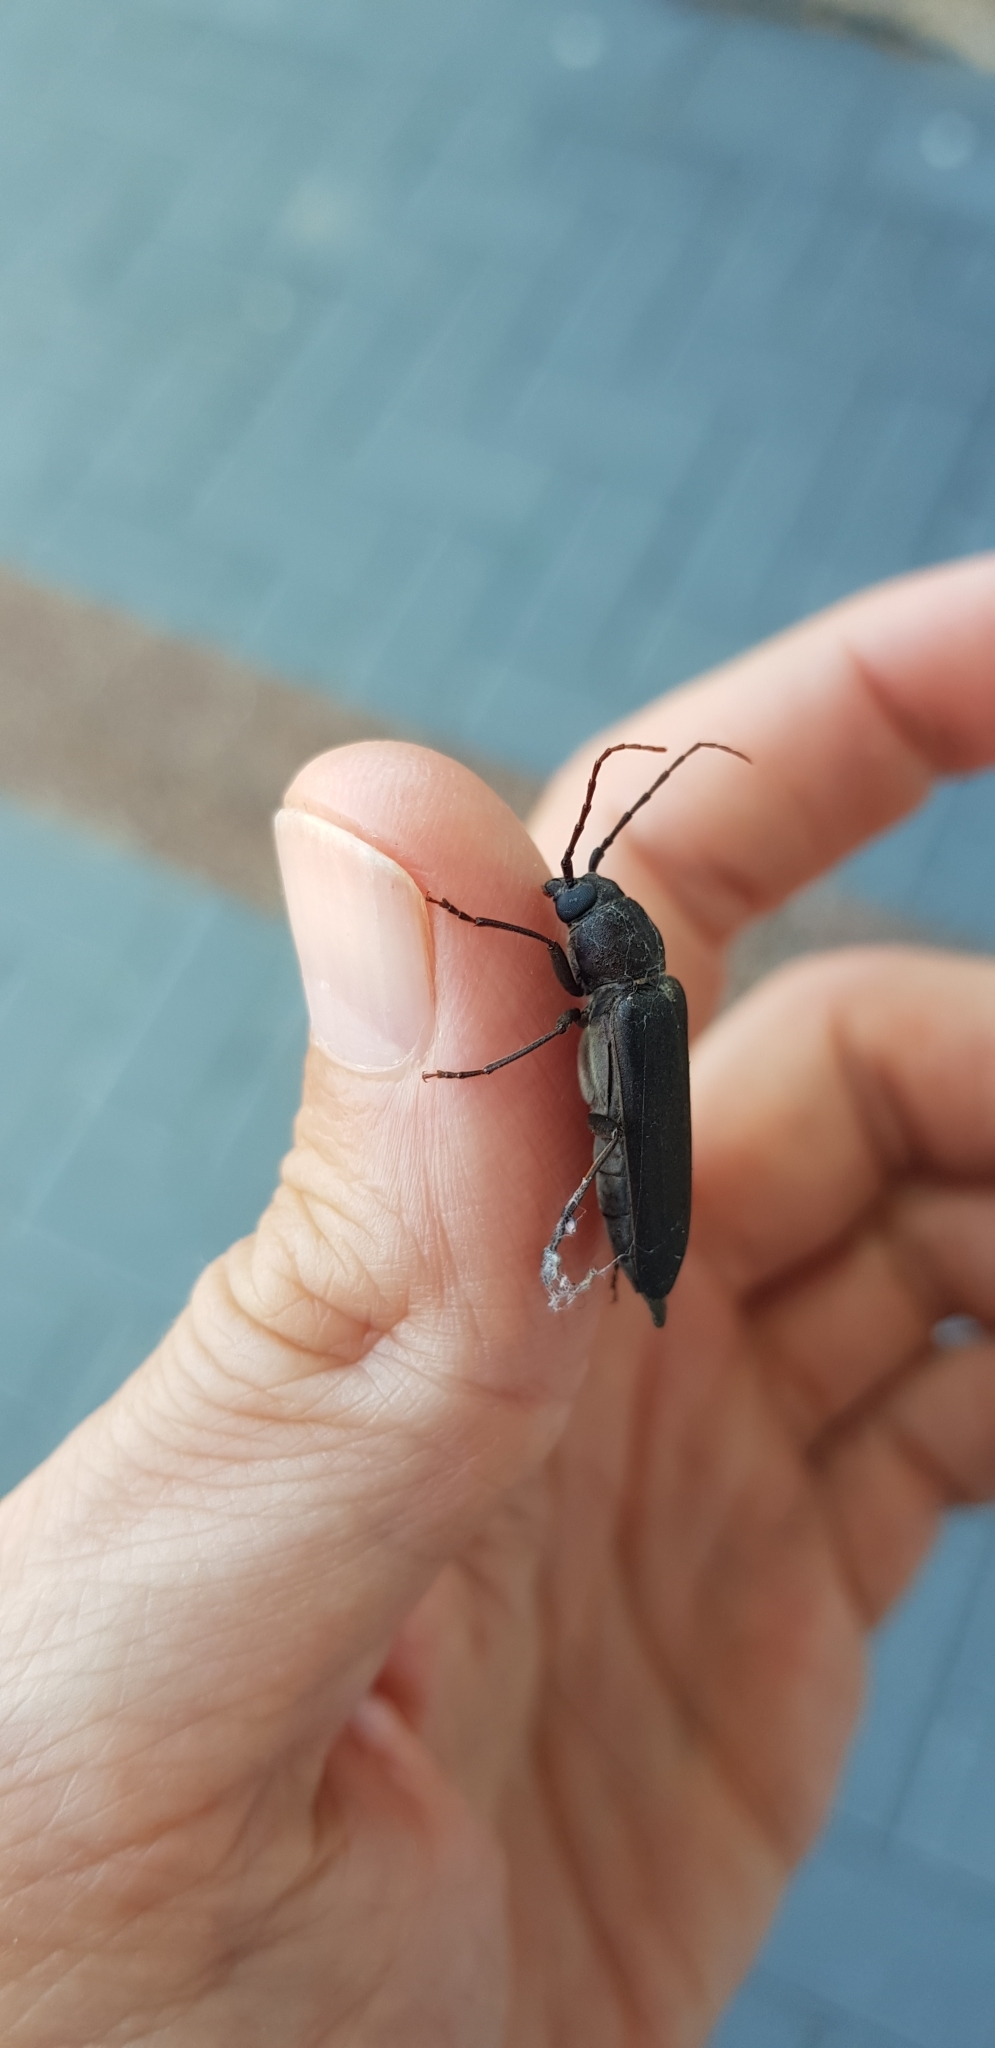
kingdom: Animalia
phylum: Arthropoda
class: Insecta
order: Coleoptera
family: Cerambycidae
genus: Arhopalus
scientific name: Arhopalus ferus
